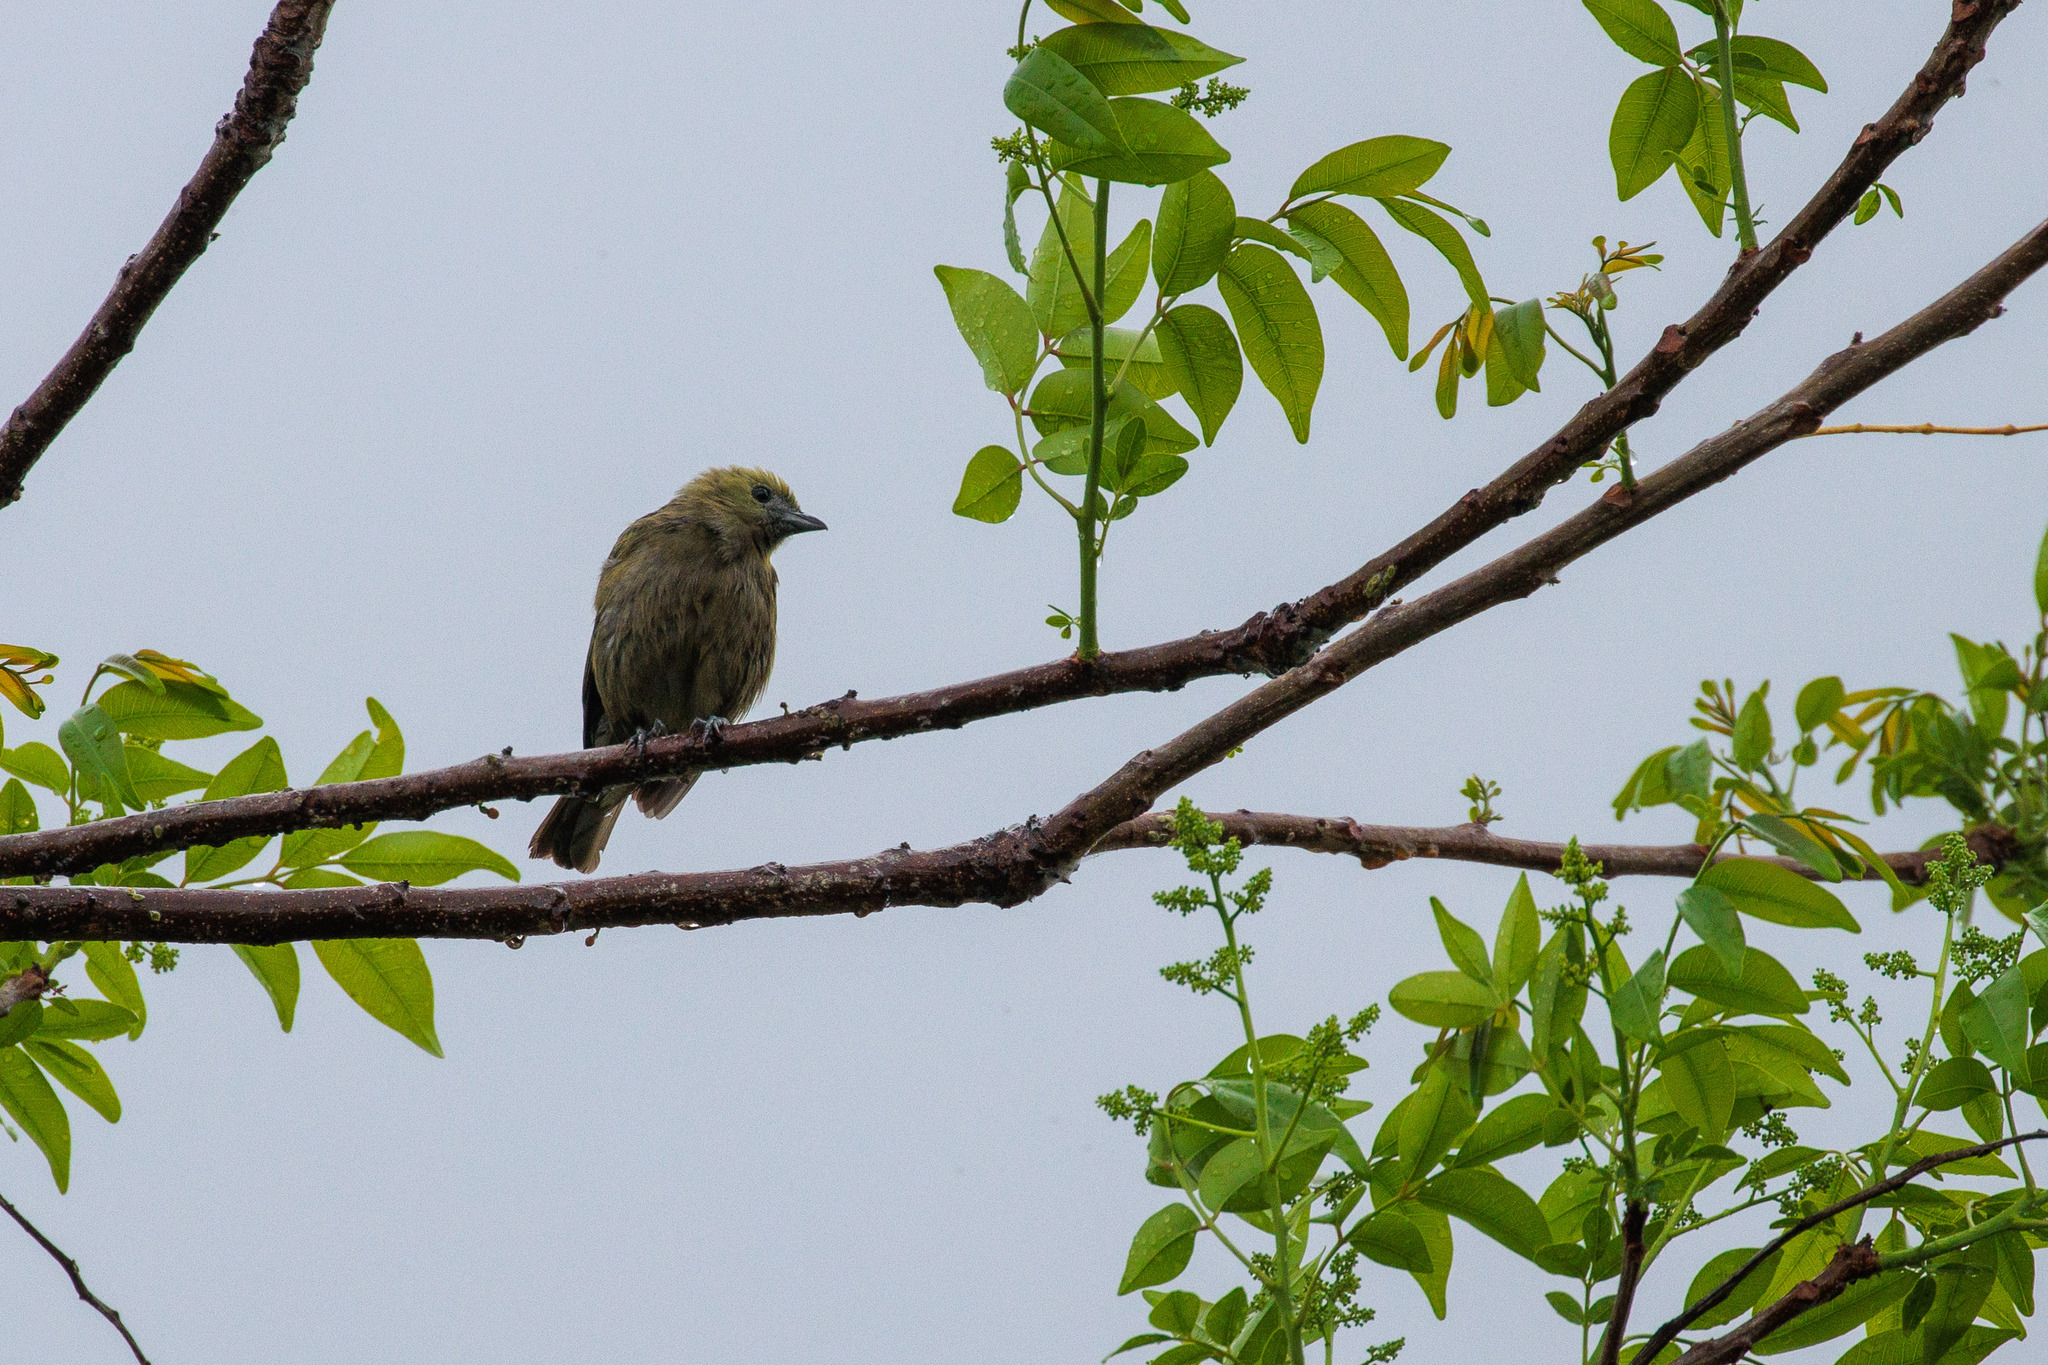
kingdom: Animalia
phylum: Chordata
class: Aves
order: Passeriformes
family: Thraupidae
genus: Thraupis
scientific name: Thraupis palmarum
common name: Palm tanager
